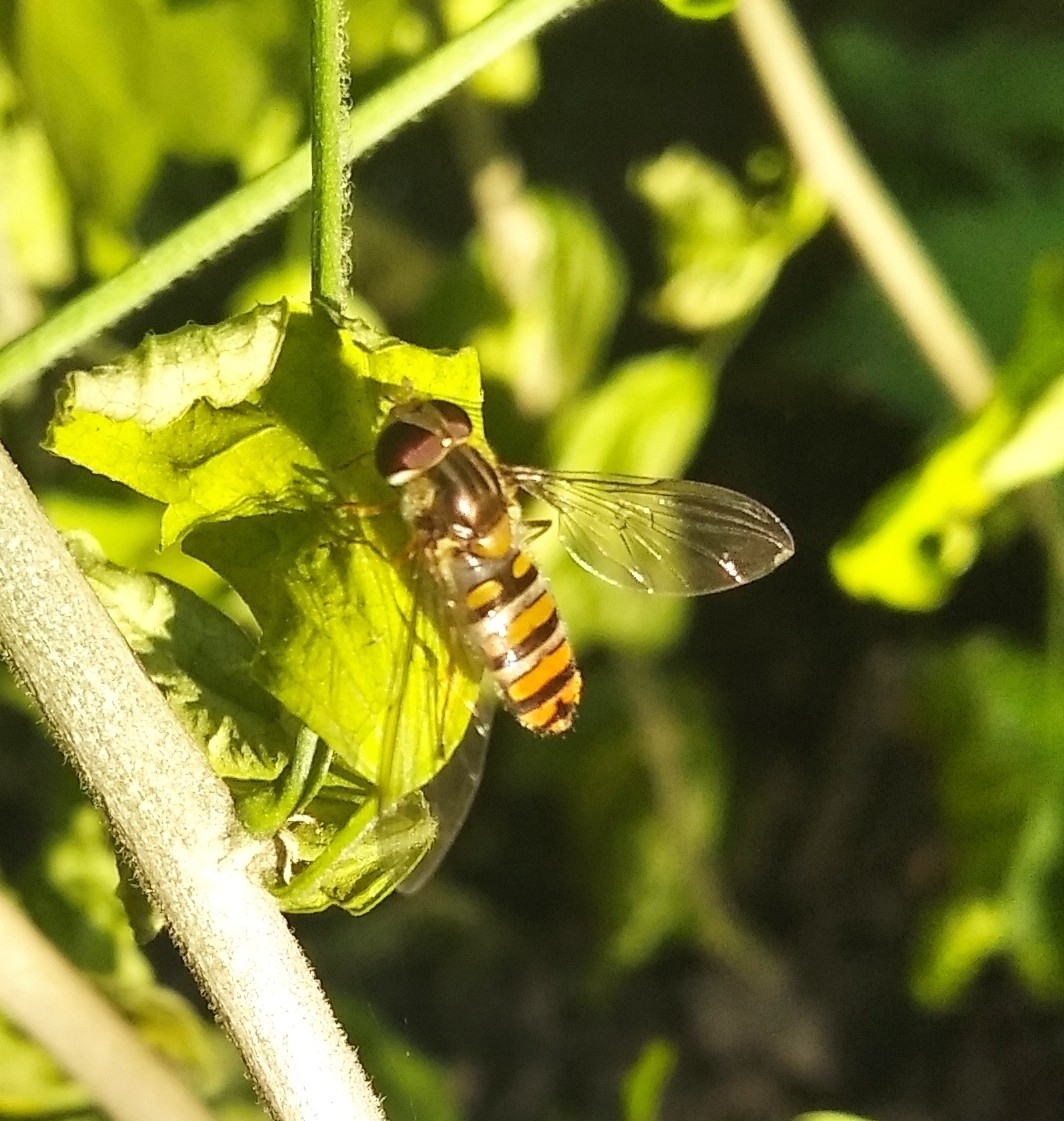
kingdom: Animalia
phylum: Arthropoda
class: Insecta
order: Diptera
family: Syrphidae
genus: Episyrphus
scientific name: Episyrphus balteatus
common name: Marmalade hoverfly
